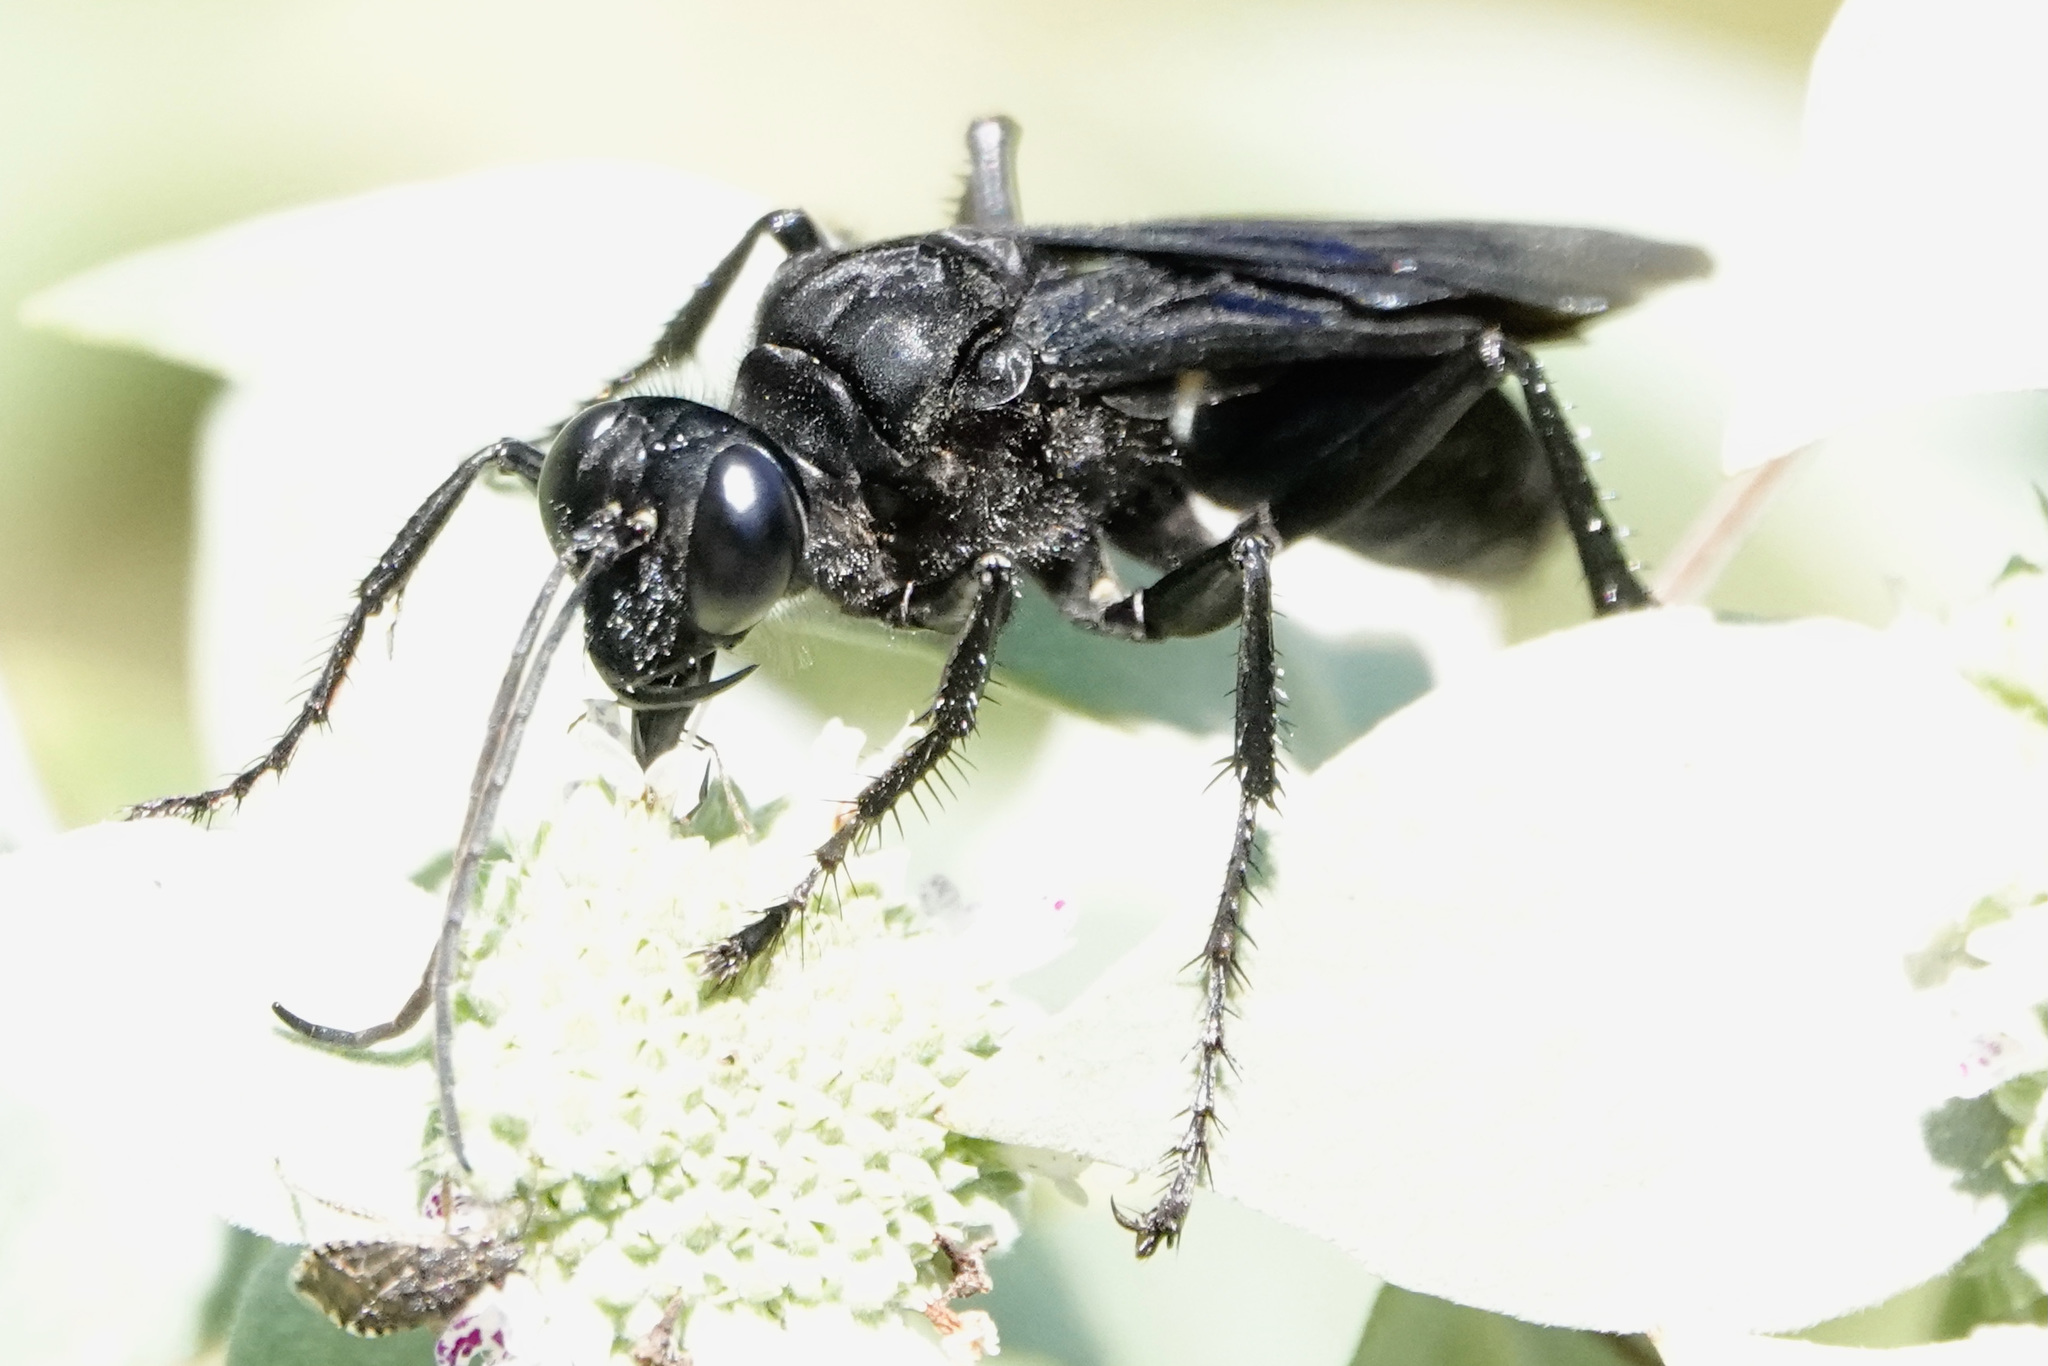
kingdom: Animalia
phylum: Arthropoda
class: Insecta
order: Hymenoptera
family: Sphecidae
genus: Sphex
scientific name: Sphex pensylvanicus
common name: Great black digger wasp
